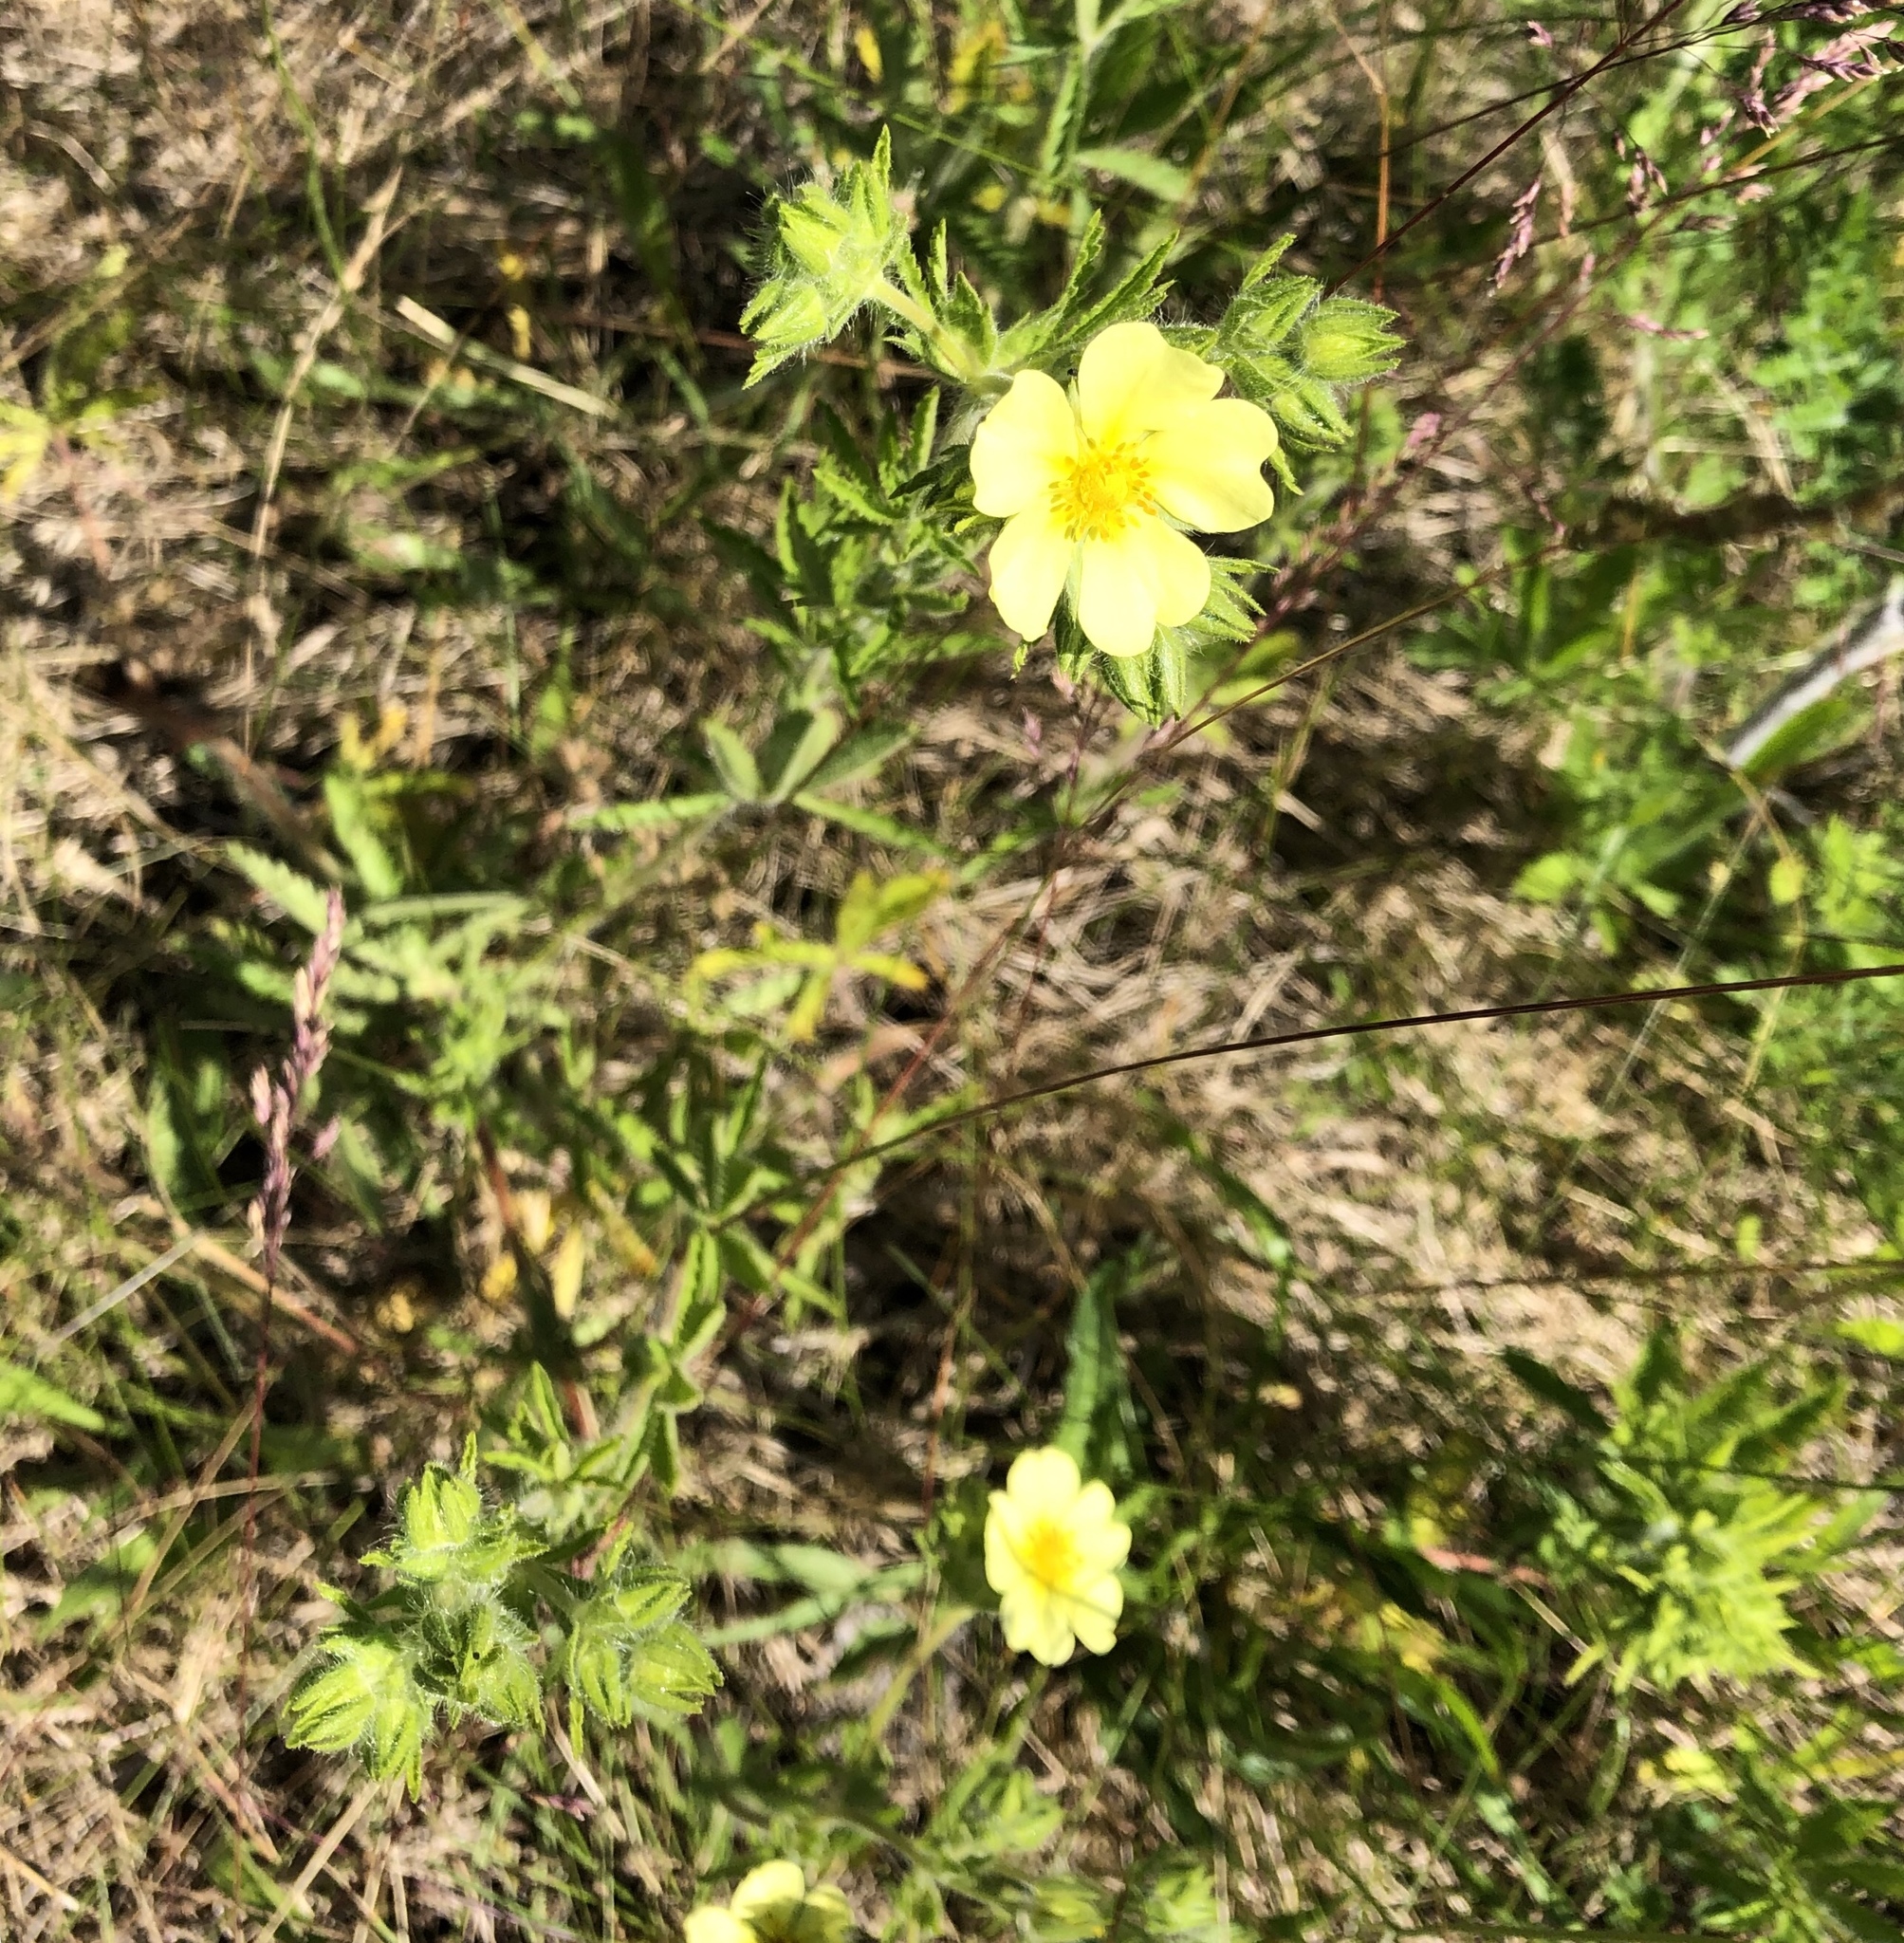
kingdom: Plantae
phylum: Tracheophyta
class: Magnoliopsida
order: Rosales
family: Rosaceae
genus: Potentilla
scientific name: Potentilla recta
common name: Sulphur cinquefoil
